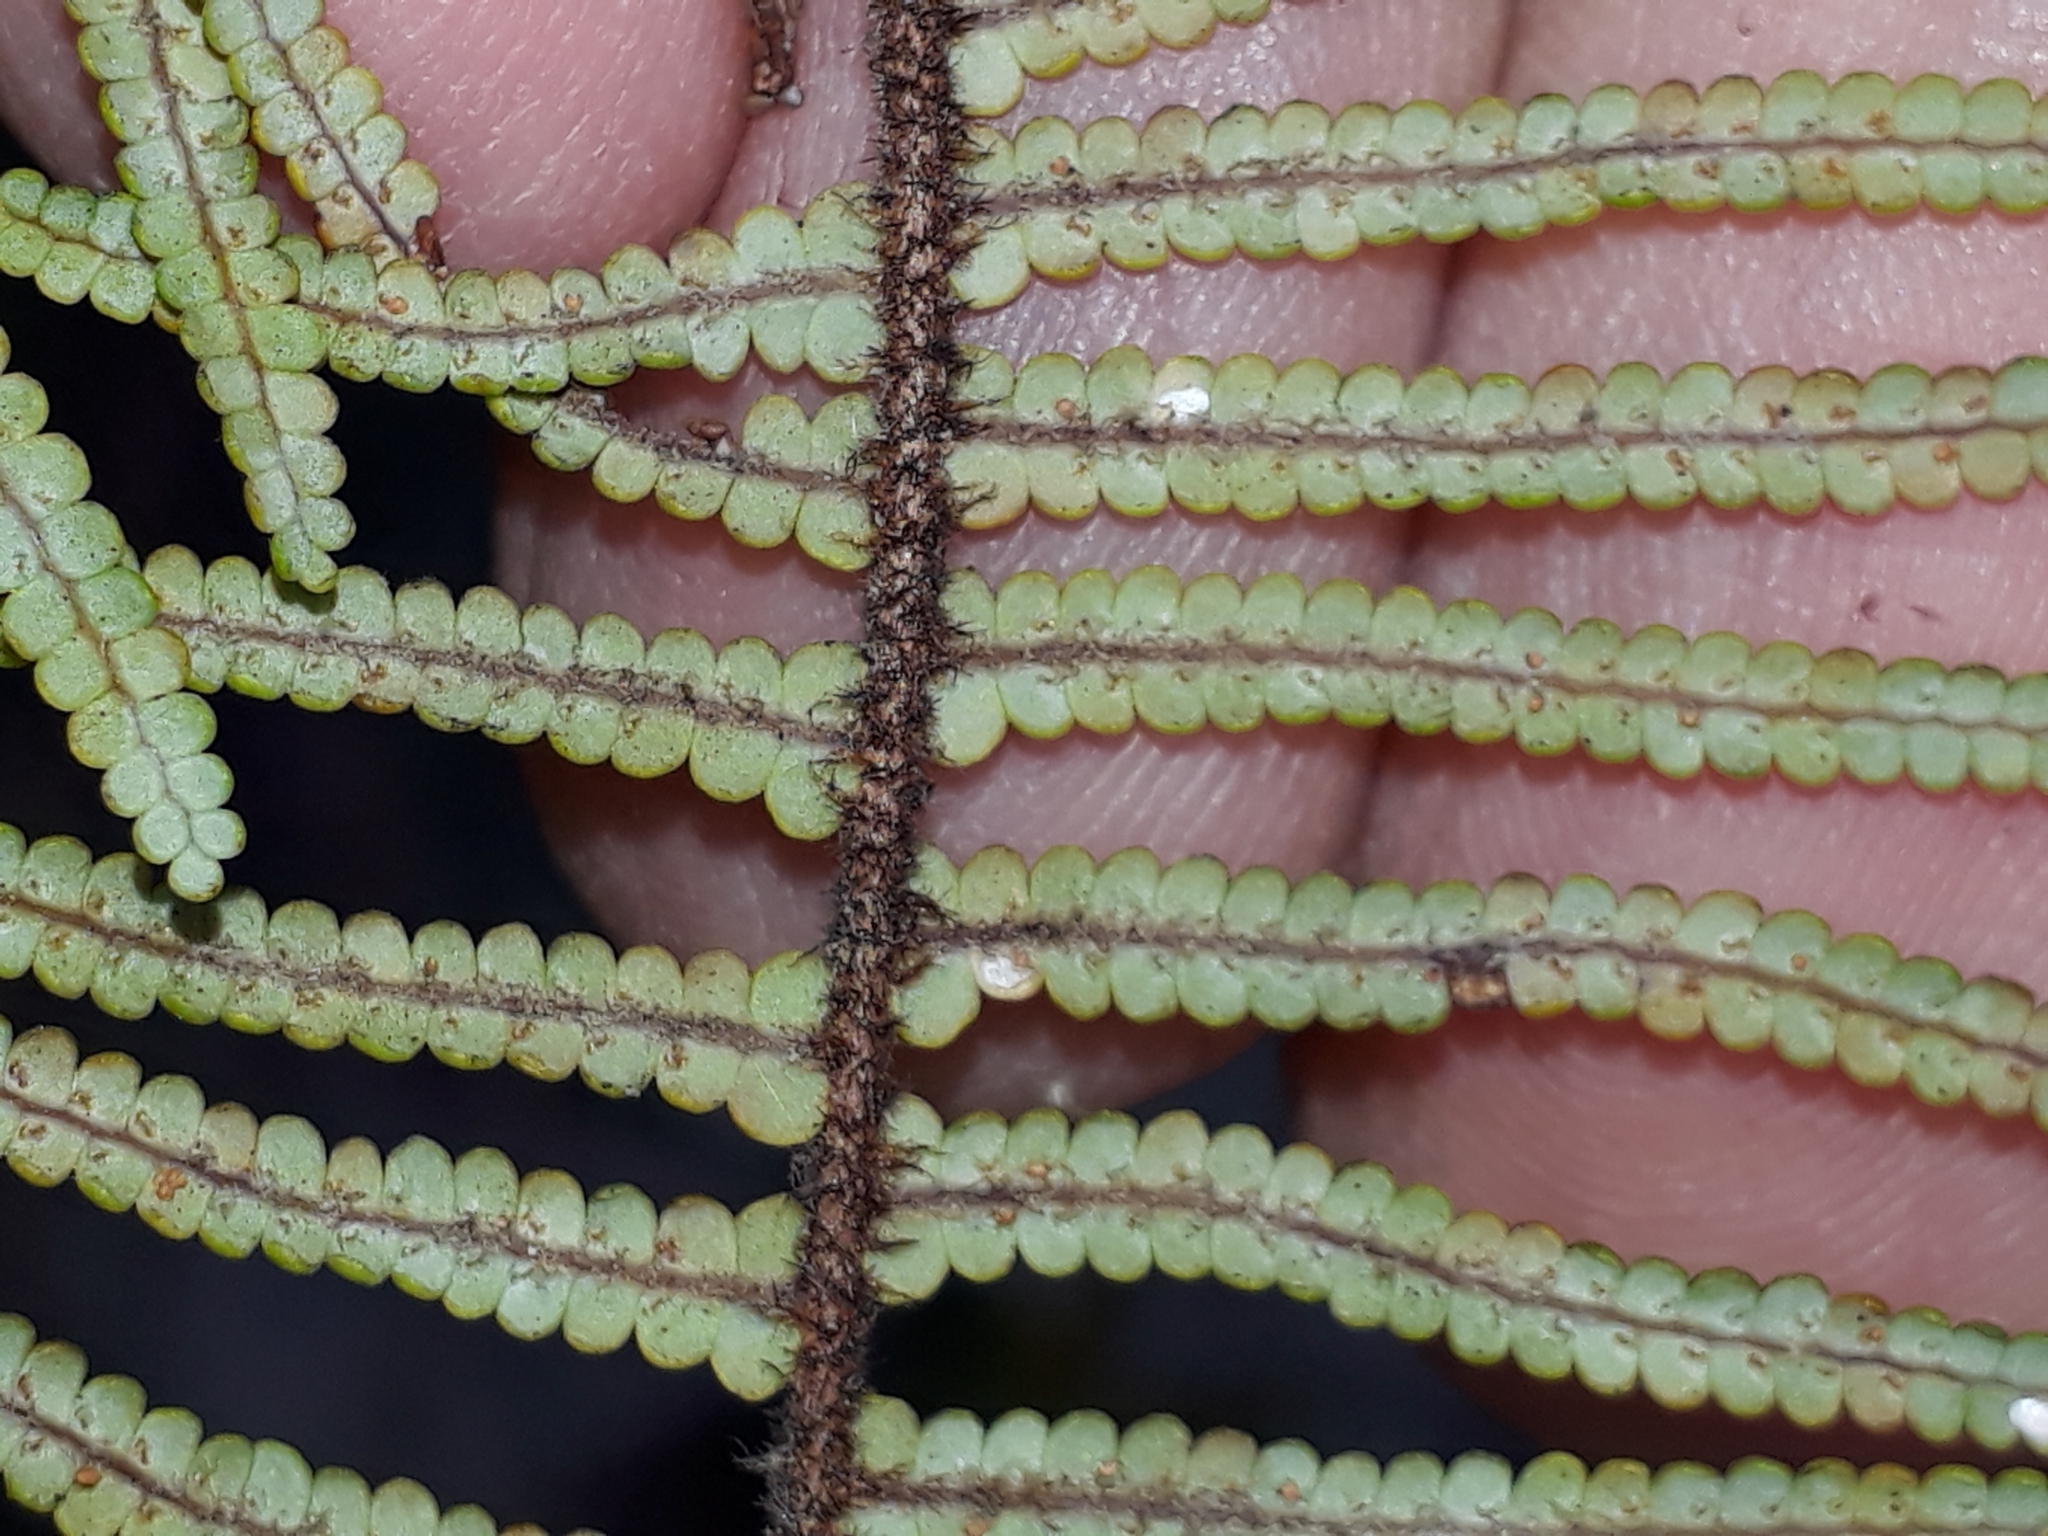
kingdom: Plantae
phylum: Tracheophyta
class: Polypodiopsida
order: Gleicheniales
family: Gleicheniaceae
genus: Gleichenia
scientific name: Gleichenia microphylla
